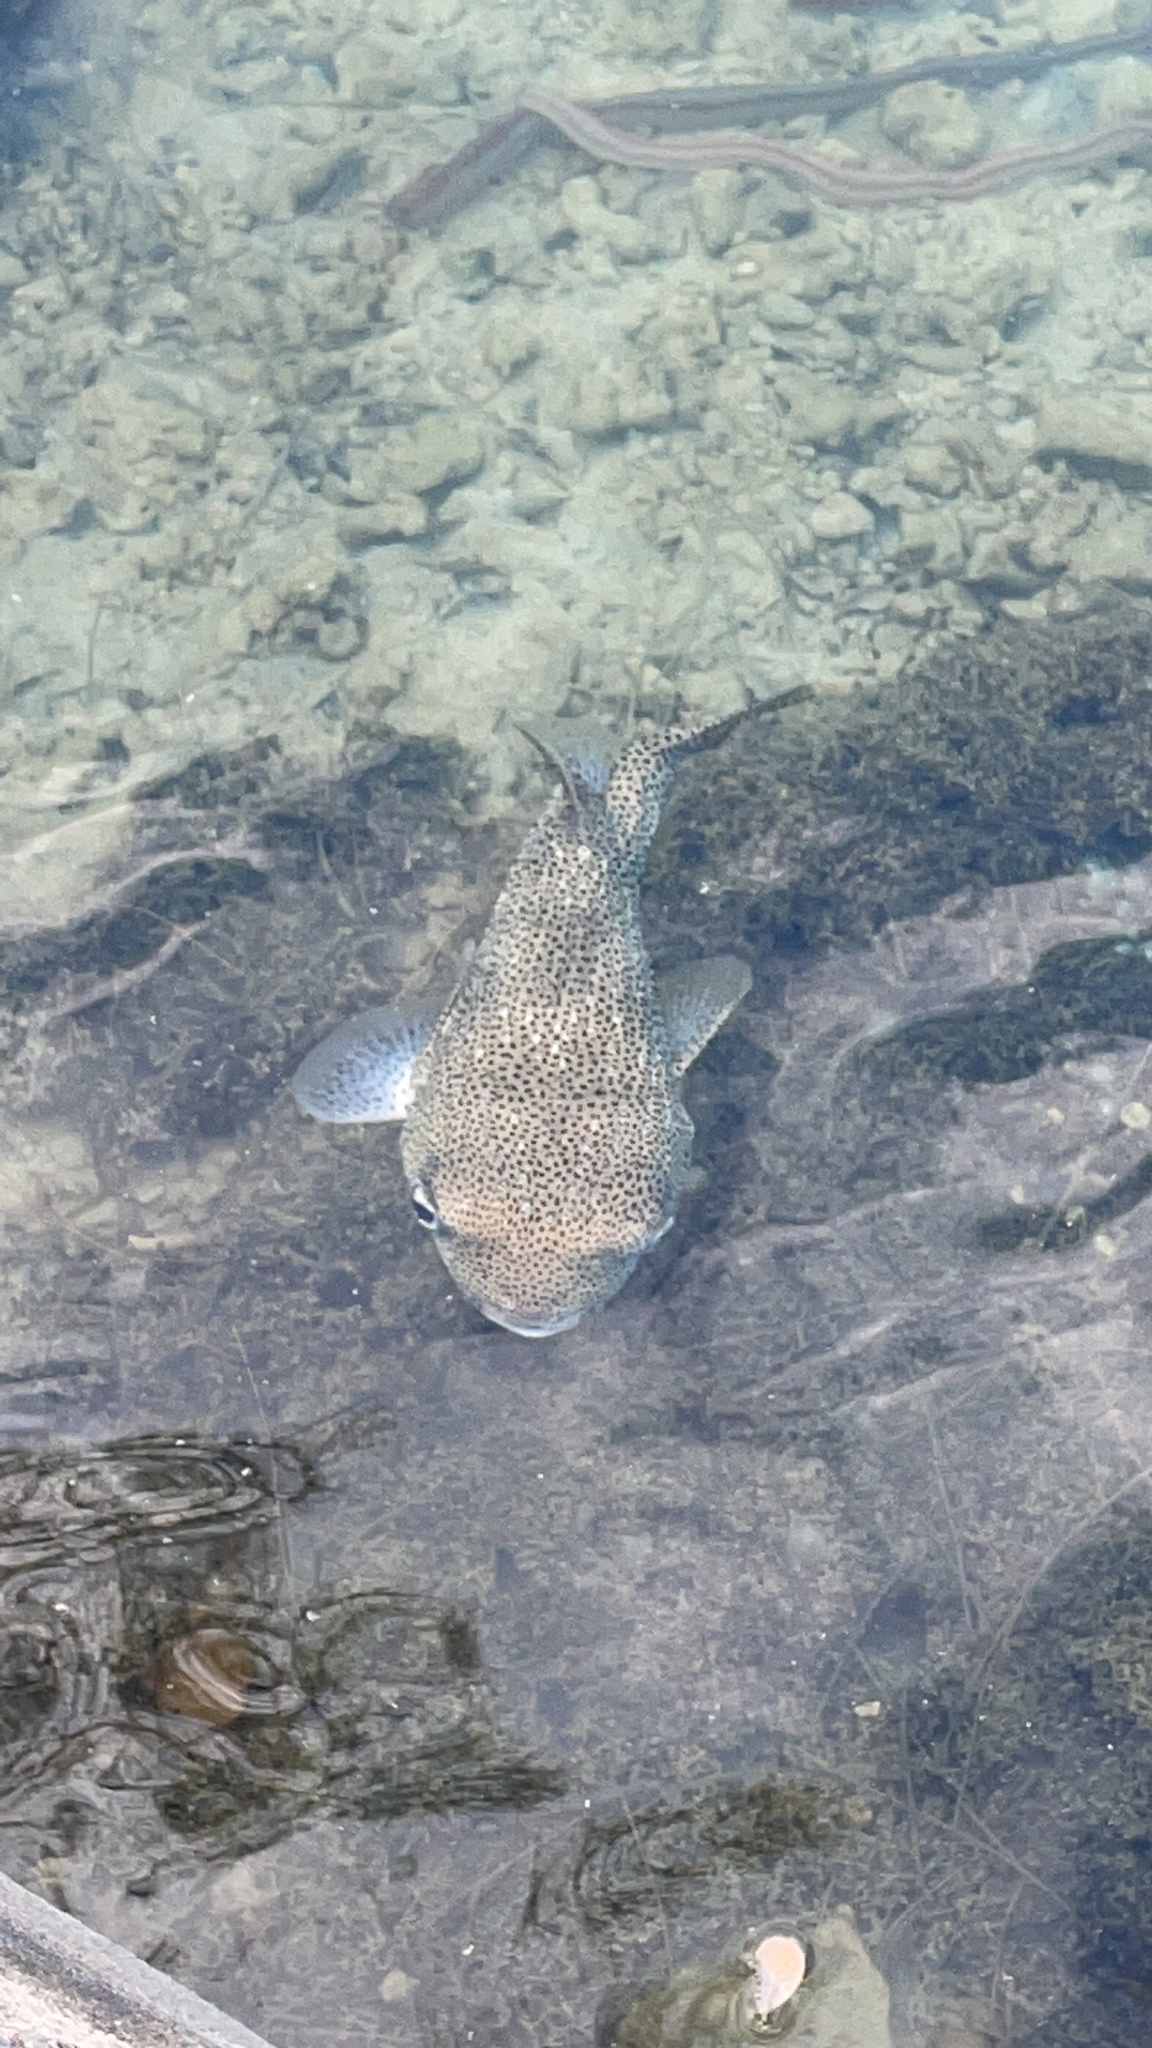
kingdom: Animalia
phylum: Chordata
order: Tetraodontiformes
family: Diodontidae
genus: Diodon
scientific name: Diodon hystrix
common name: Giant porcupinefish
